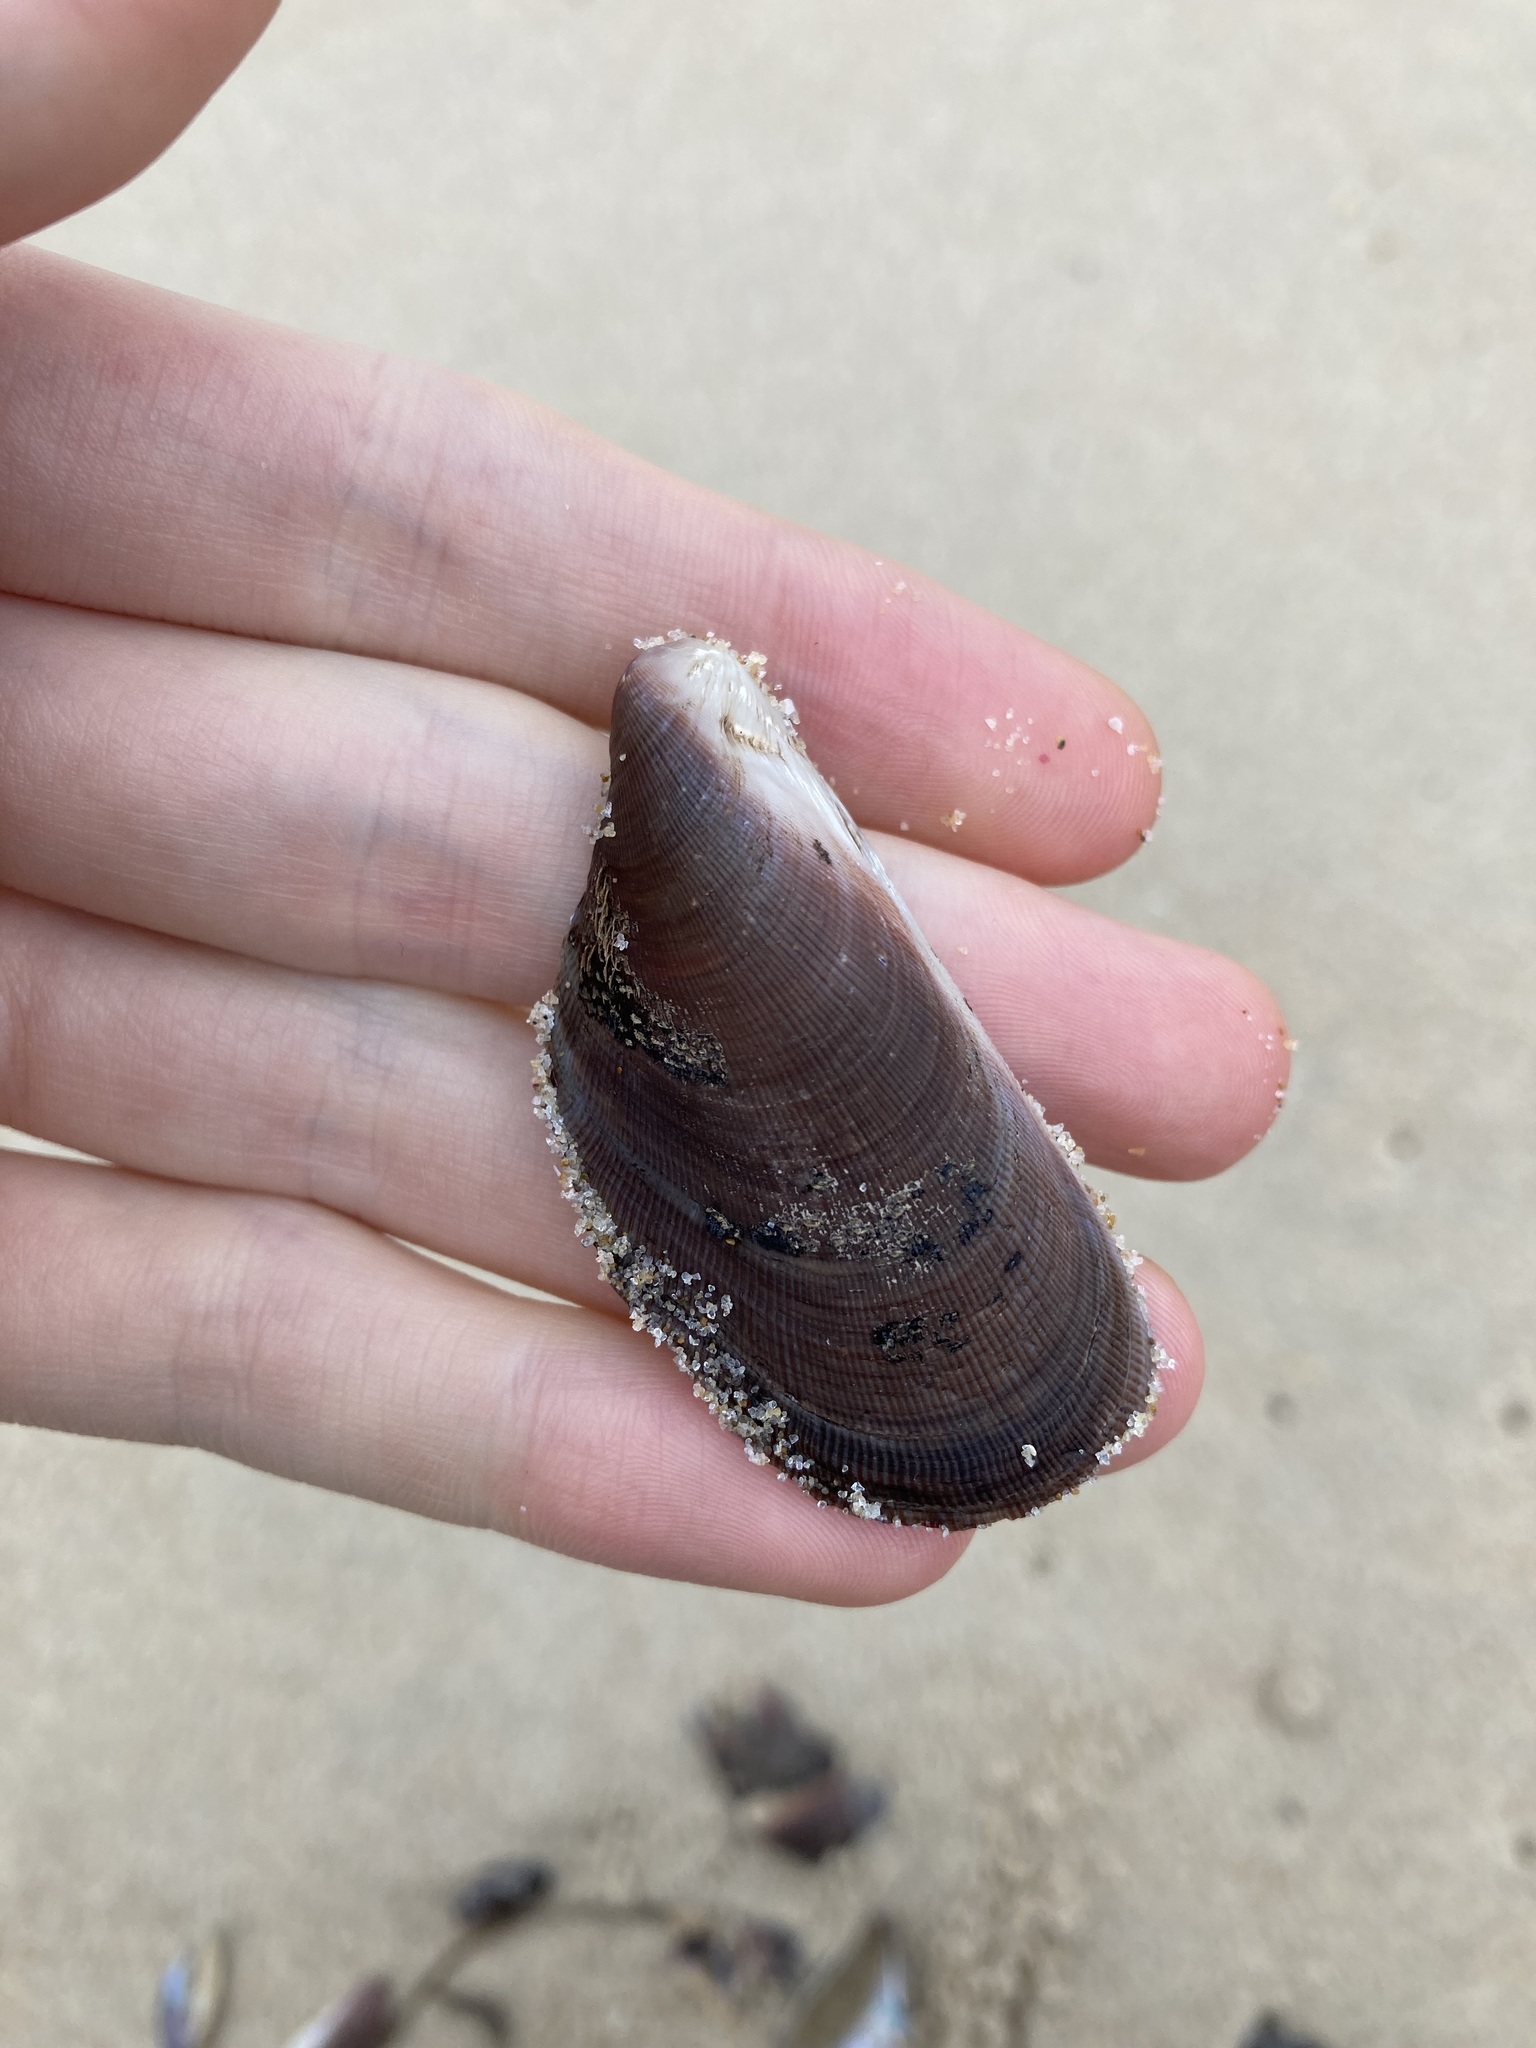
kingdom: Animalia
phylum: Mollusca
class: Bivalvia
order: Mytilida
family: Mytilidae
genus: Trichomya
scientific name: Trichomya hirsuta
